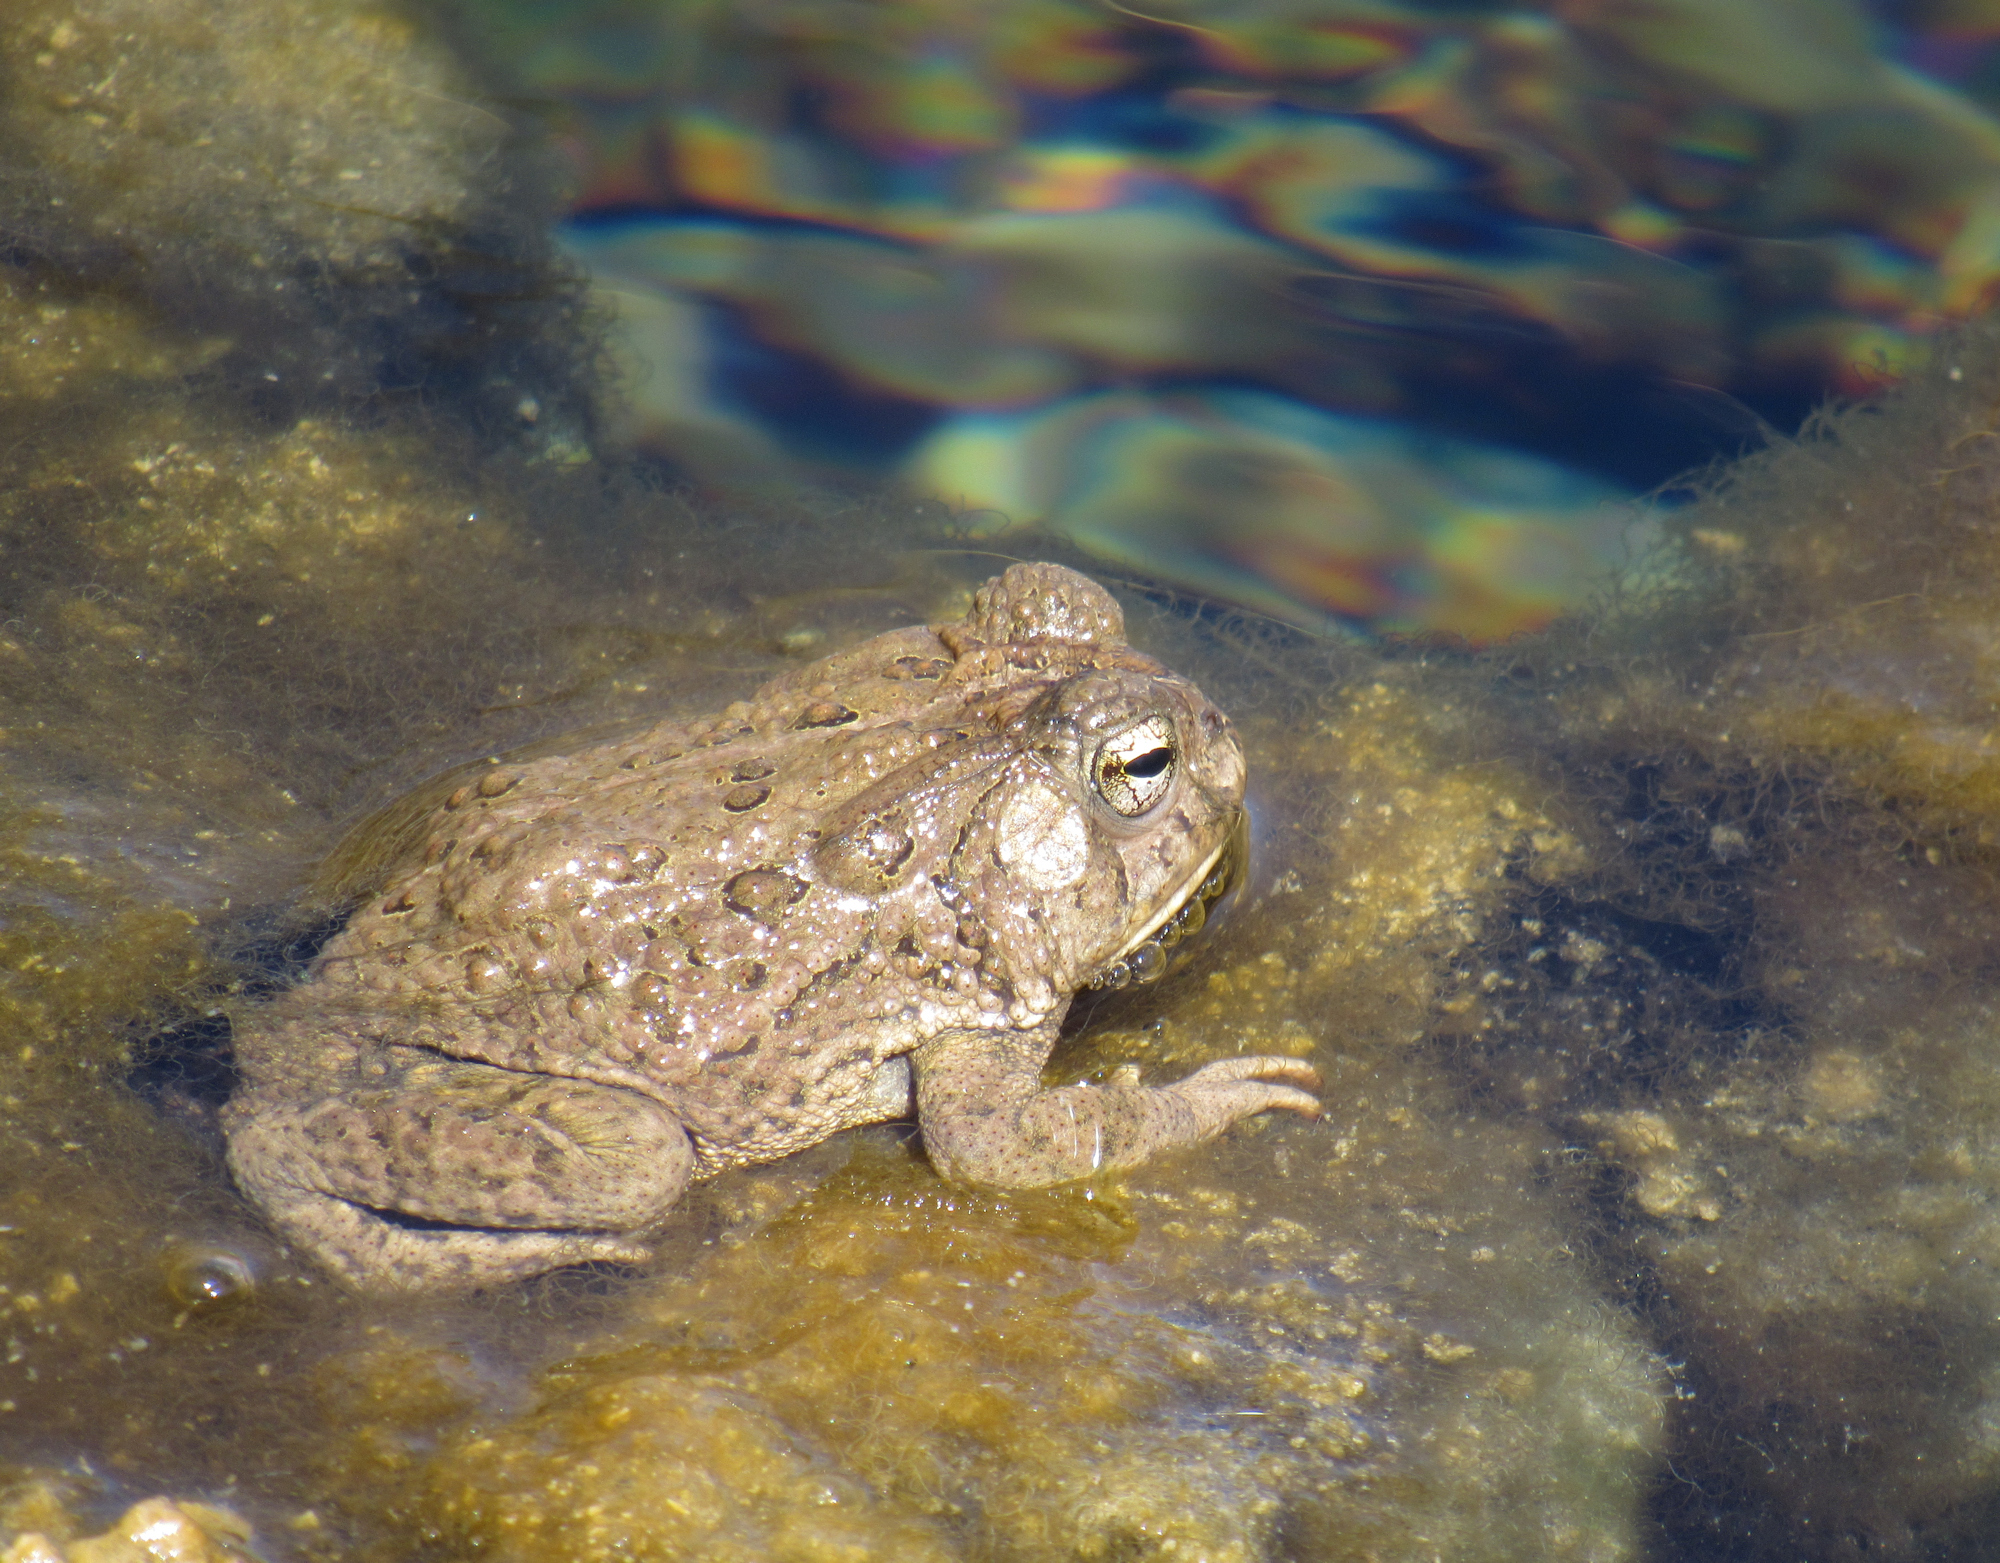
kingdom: Animalia
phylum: Chordata
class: Amphibia
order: Anura
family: Bufonidae
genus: Anaxyrus
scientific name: Anaxyrus woodhousii
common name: Woodhouse's toad
